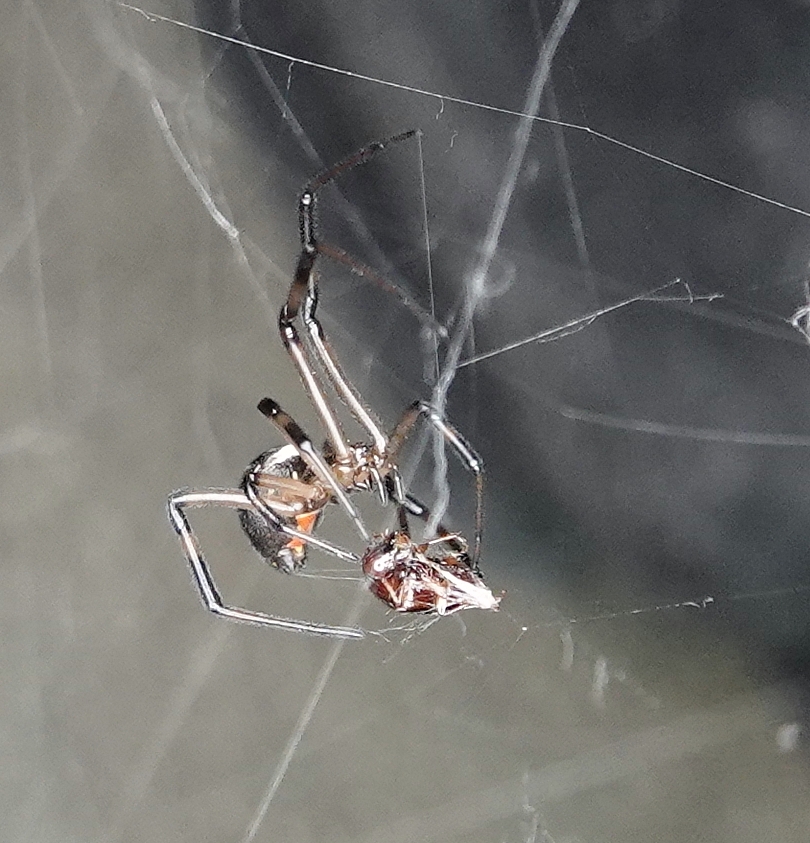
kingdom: Animalia
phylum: Arthropoda
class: Arachnida
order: Araneae
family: Theridiidae
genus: Latrodectus
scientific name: Latrodectus hesperus
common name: Western black widow
